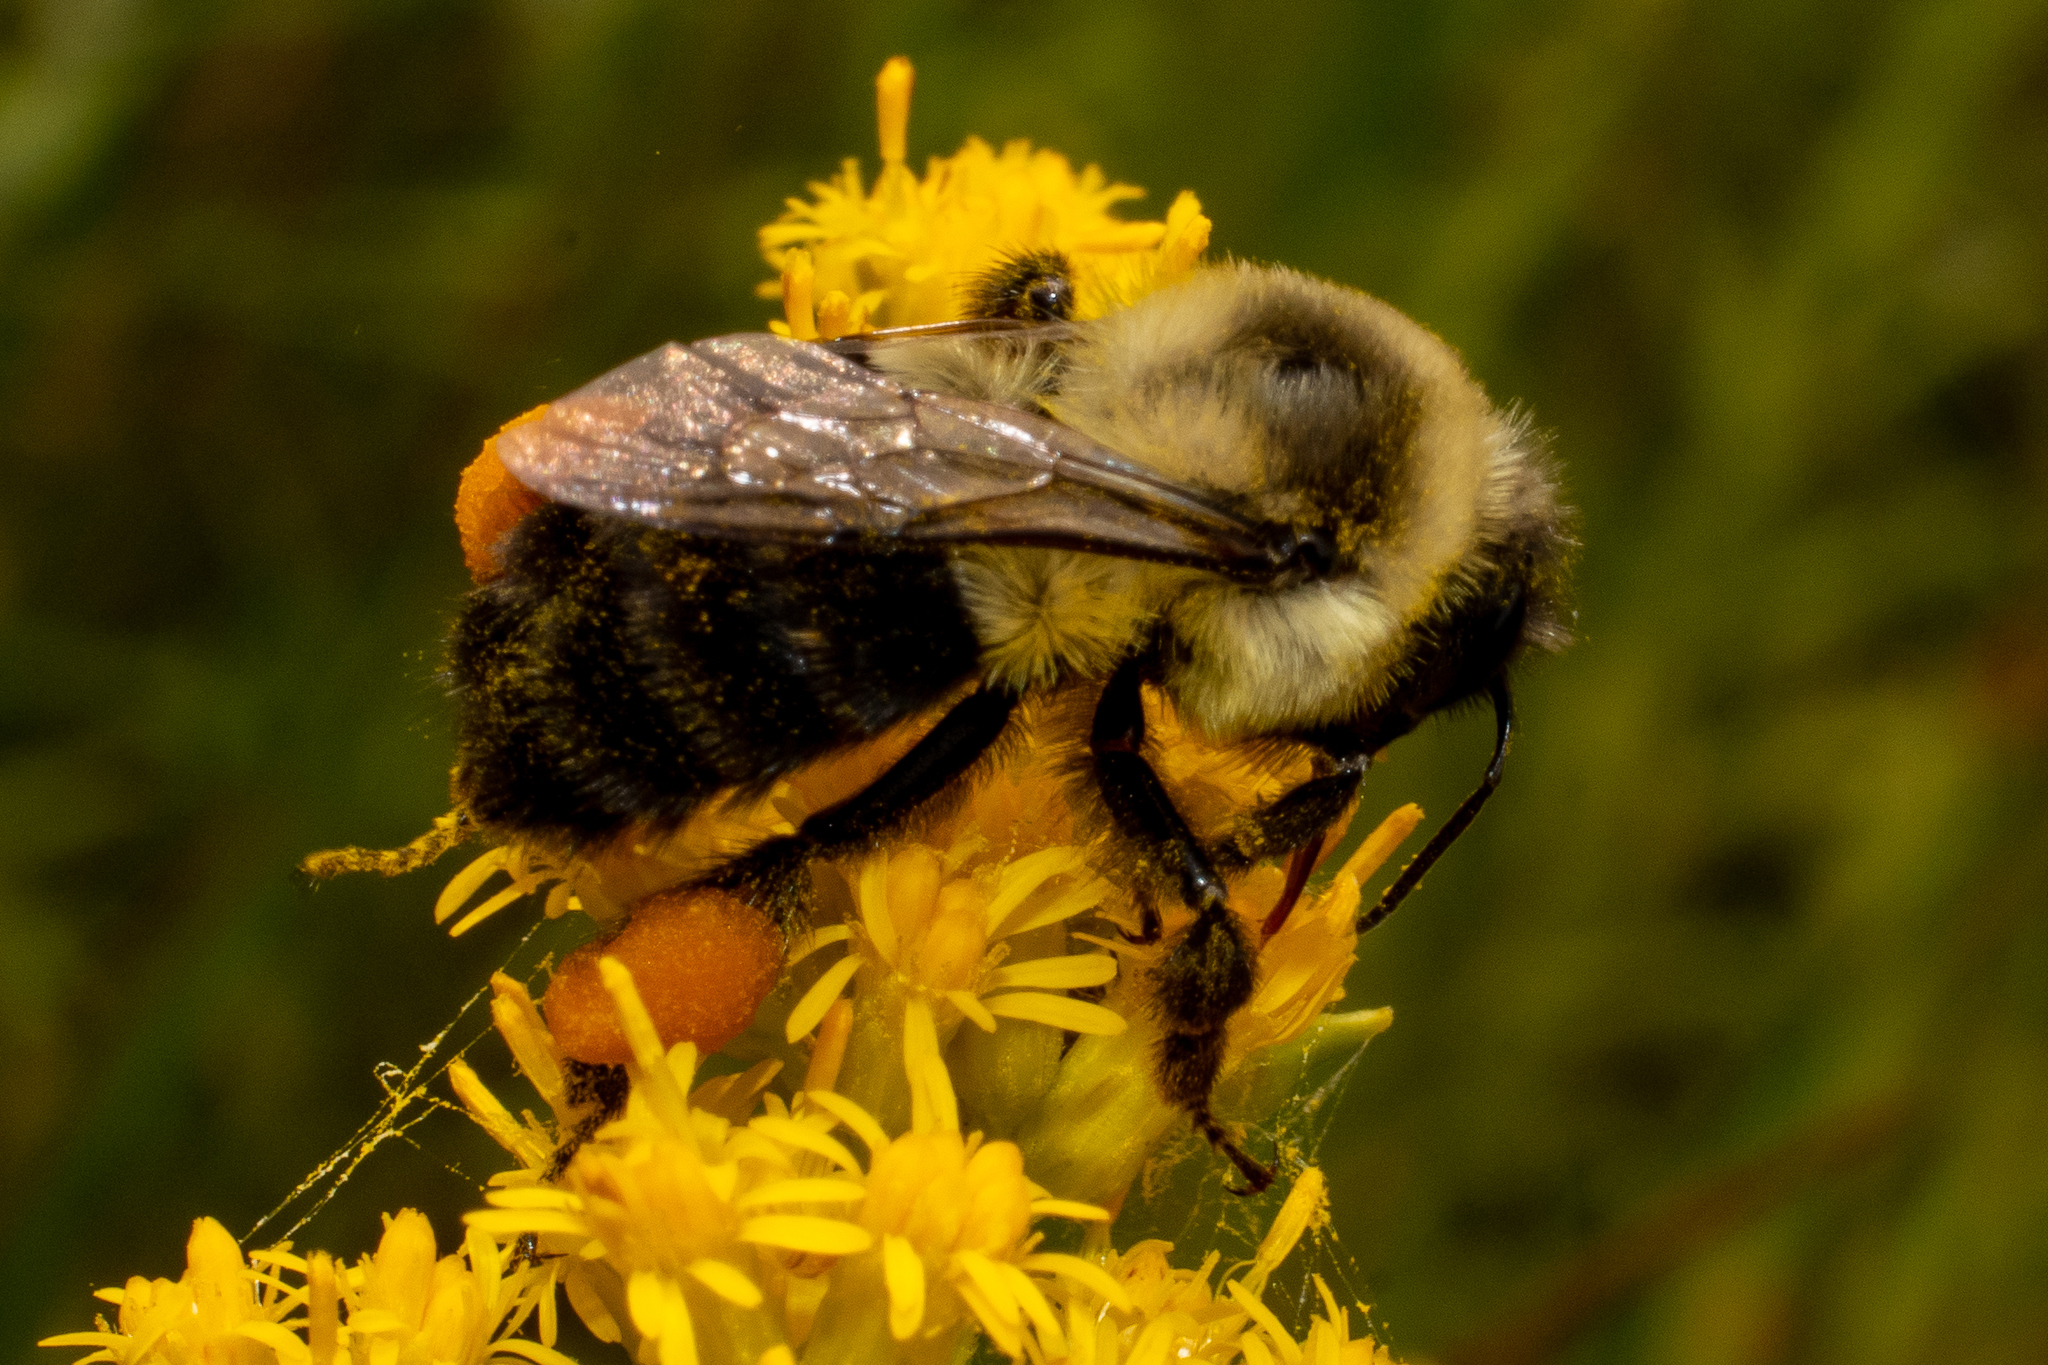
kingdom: Animalia
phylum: Arthropoda
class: Insecta
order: Hymenoptera
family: Apidae
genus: Bombus
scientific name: Bombus impatiens
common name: Common eastern bumble bee
